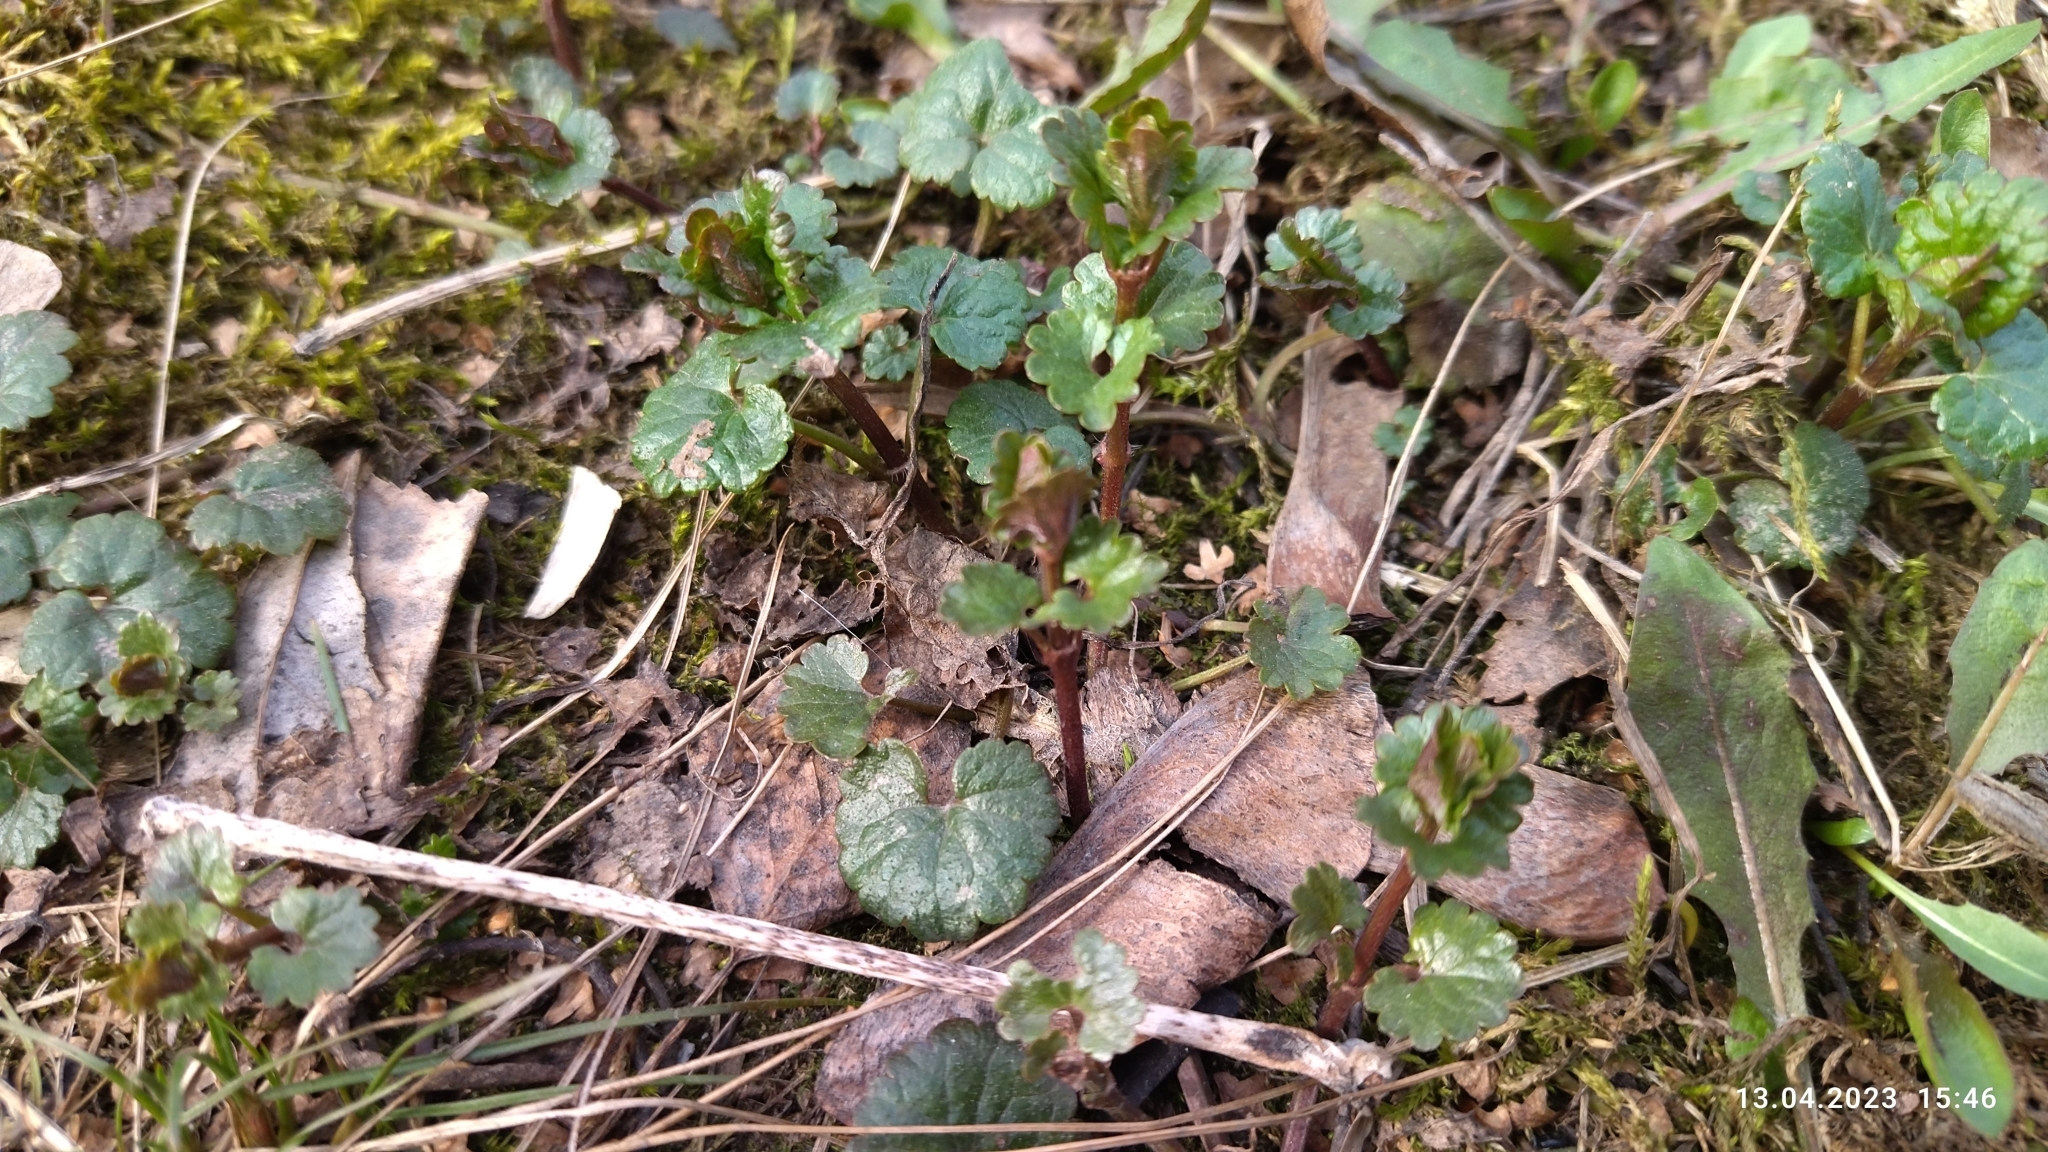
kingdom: Plantae
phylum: Tracheophyta
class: Magnoliopsida
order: Lamiales
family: Lamiaceae
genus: Glechoma
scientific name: Glechoma hederacea
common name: Ground ivy
